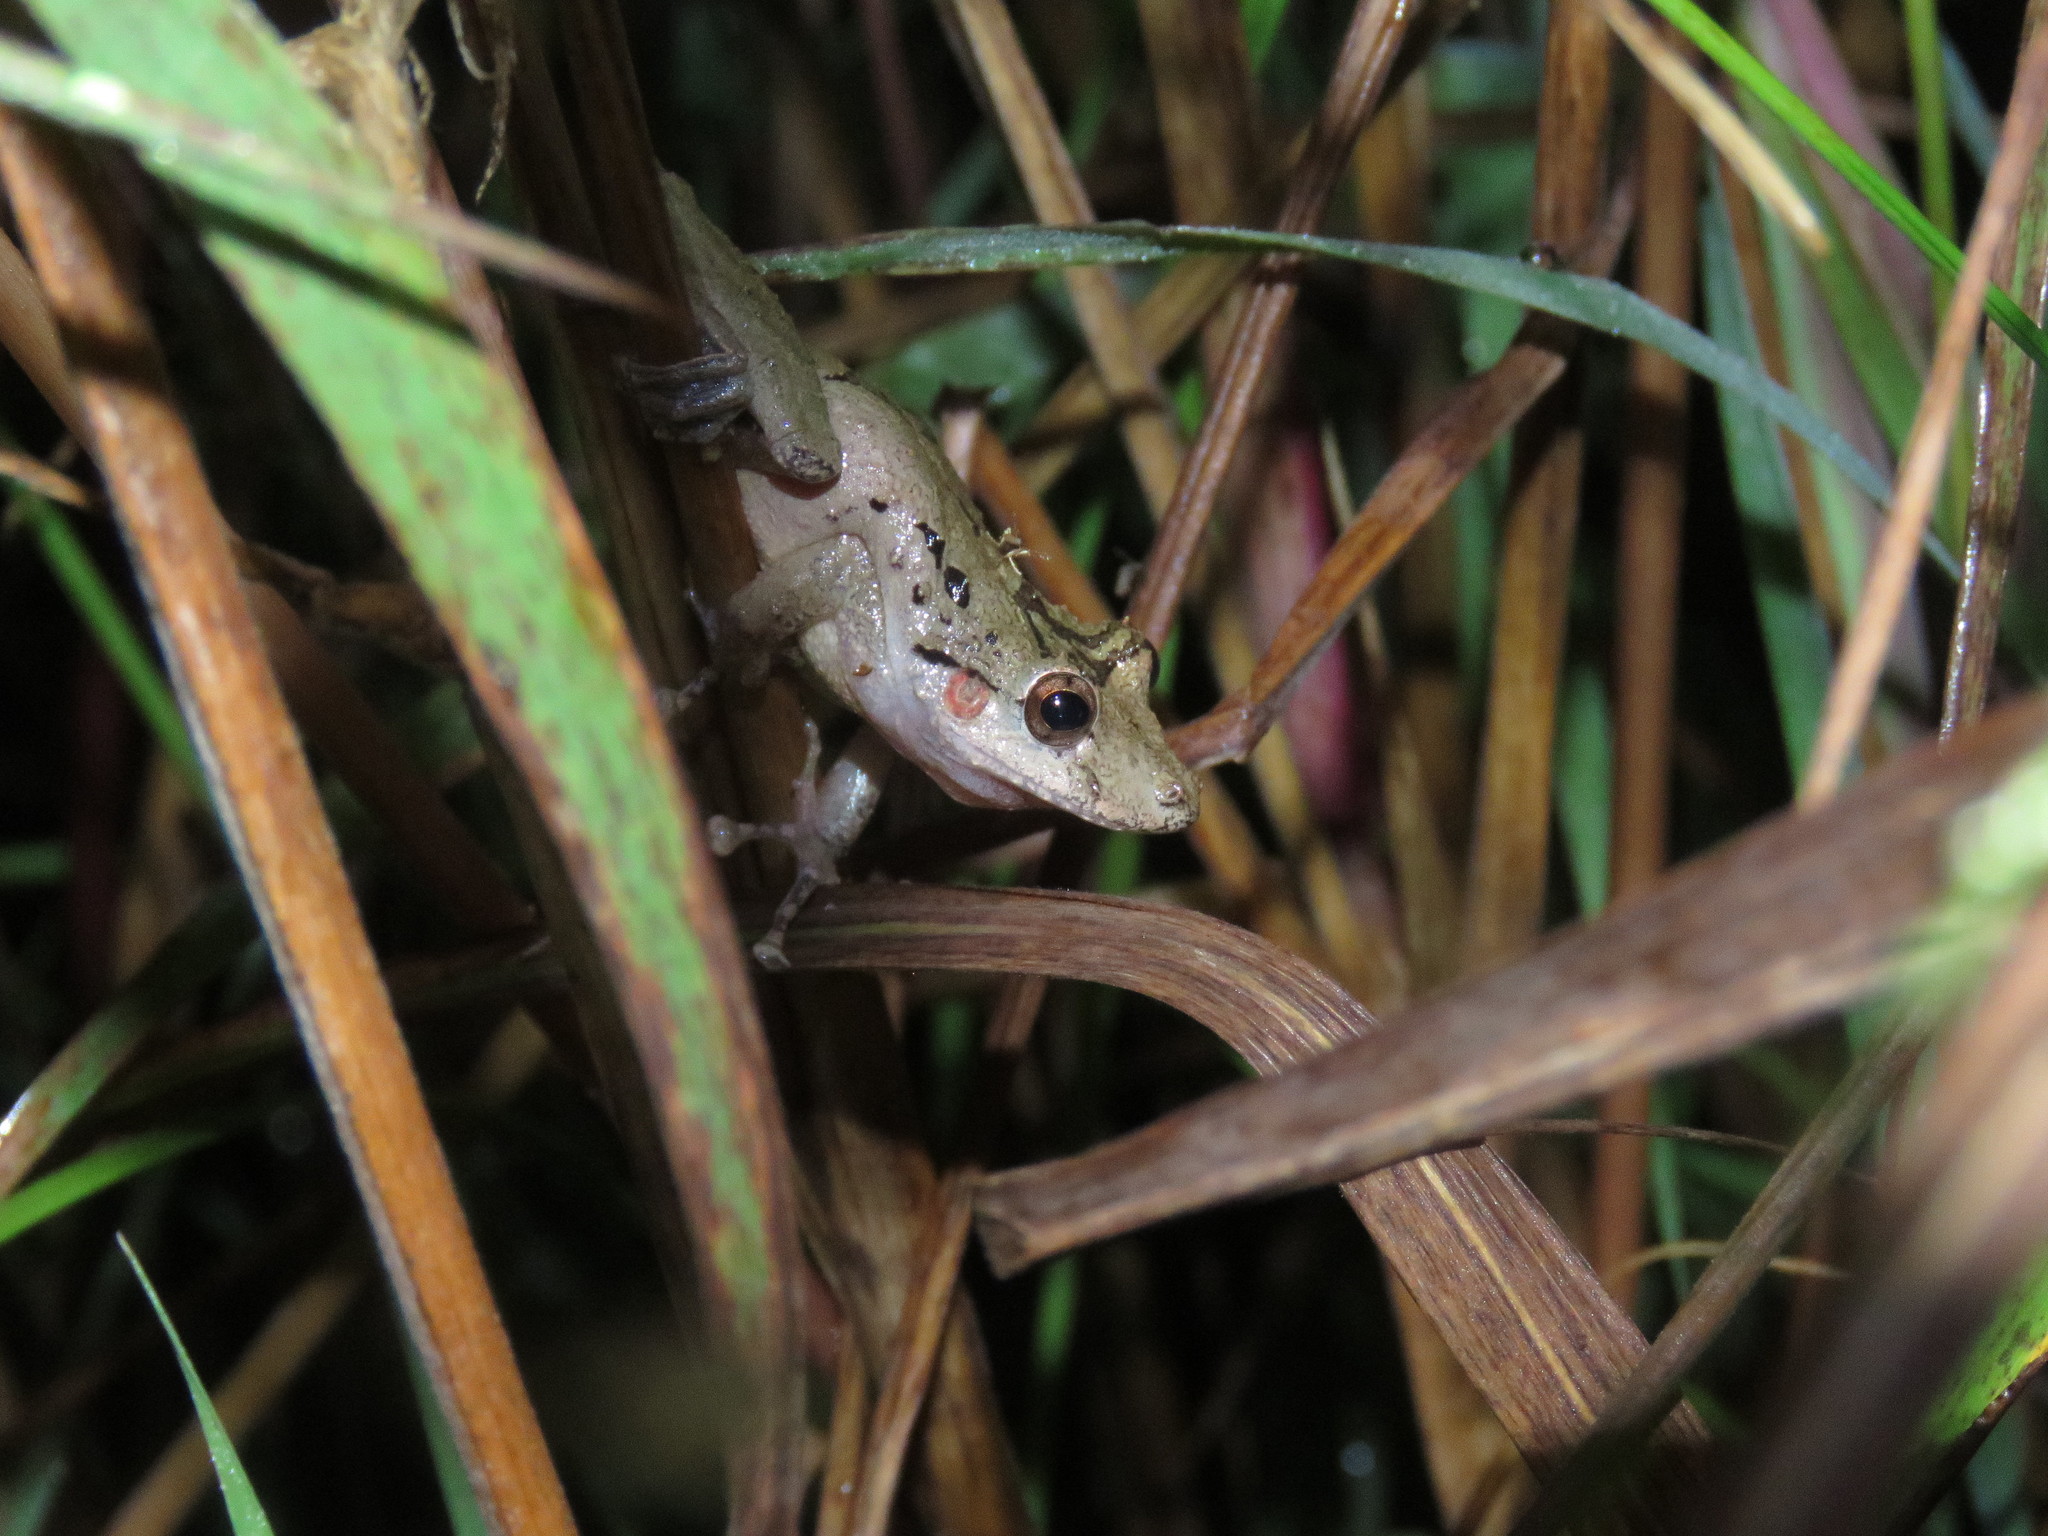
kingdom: Animalia
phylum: Chordata
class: Amphibia
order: Anura
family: Hylidae
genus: Scinax
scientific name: Scinax nebulosus
